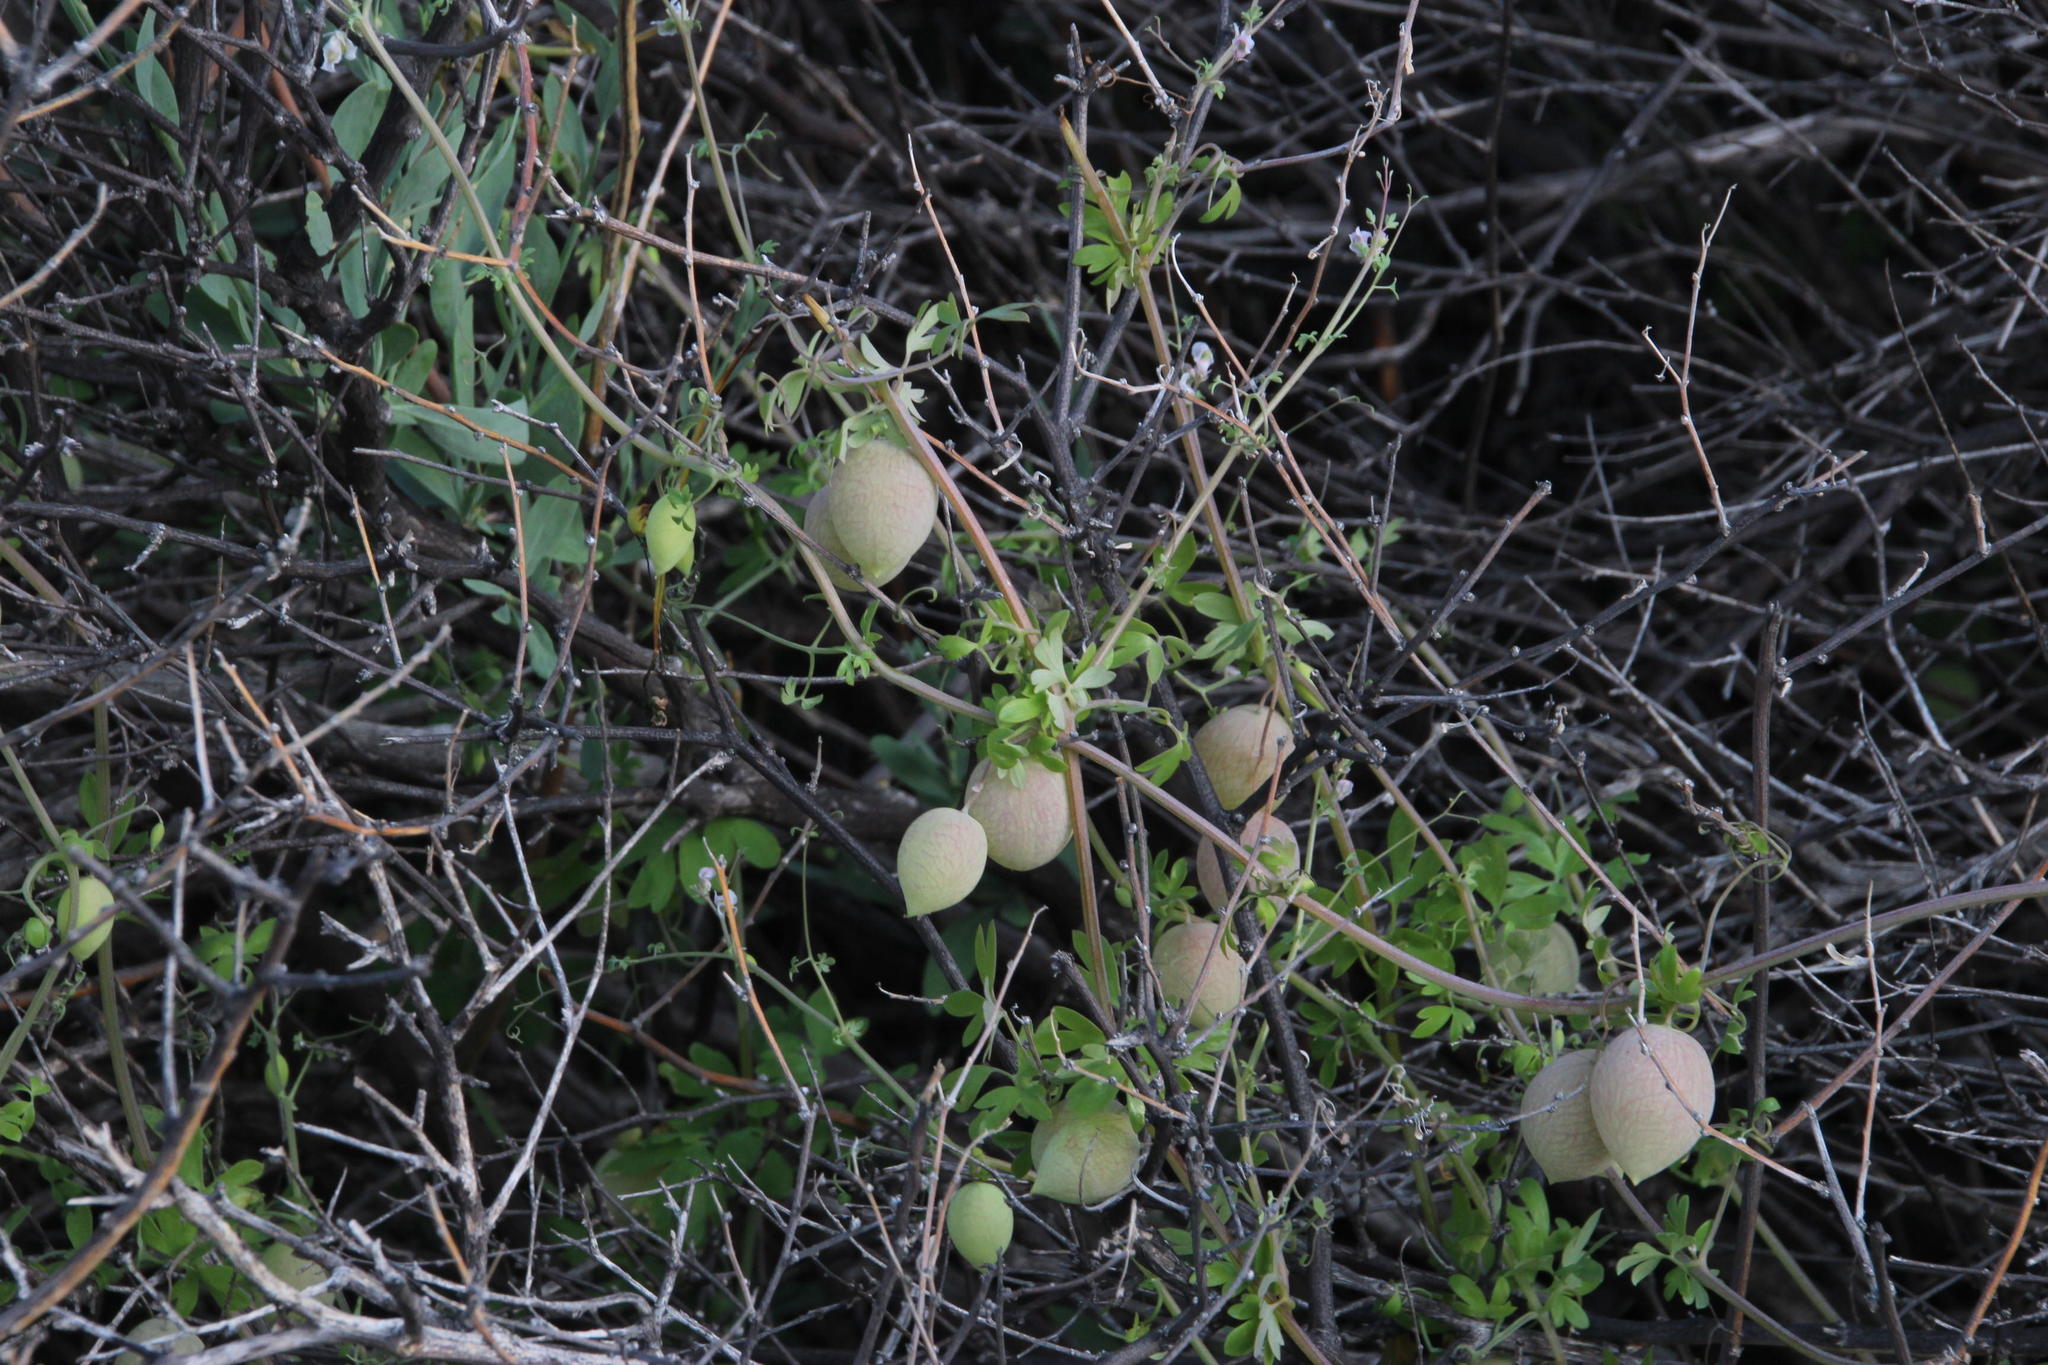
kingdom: Plantae
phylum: Tracheophyta
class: Magnoliopsida
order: Ranunculales
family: Papaveraceae
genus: Cysticapnos
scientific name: Cysticapnos vesicaria
